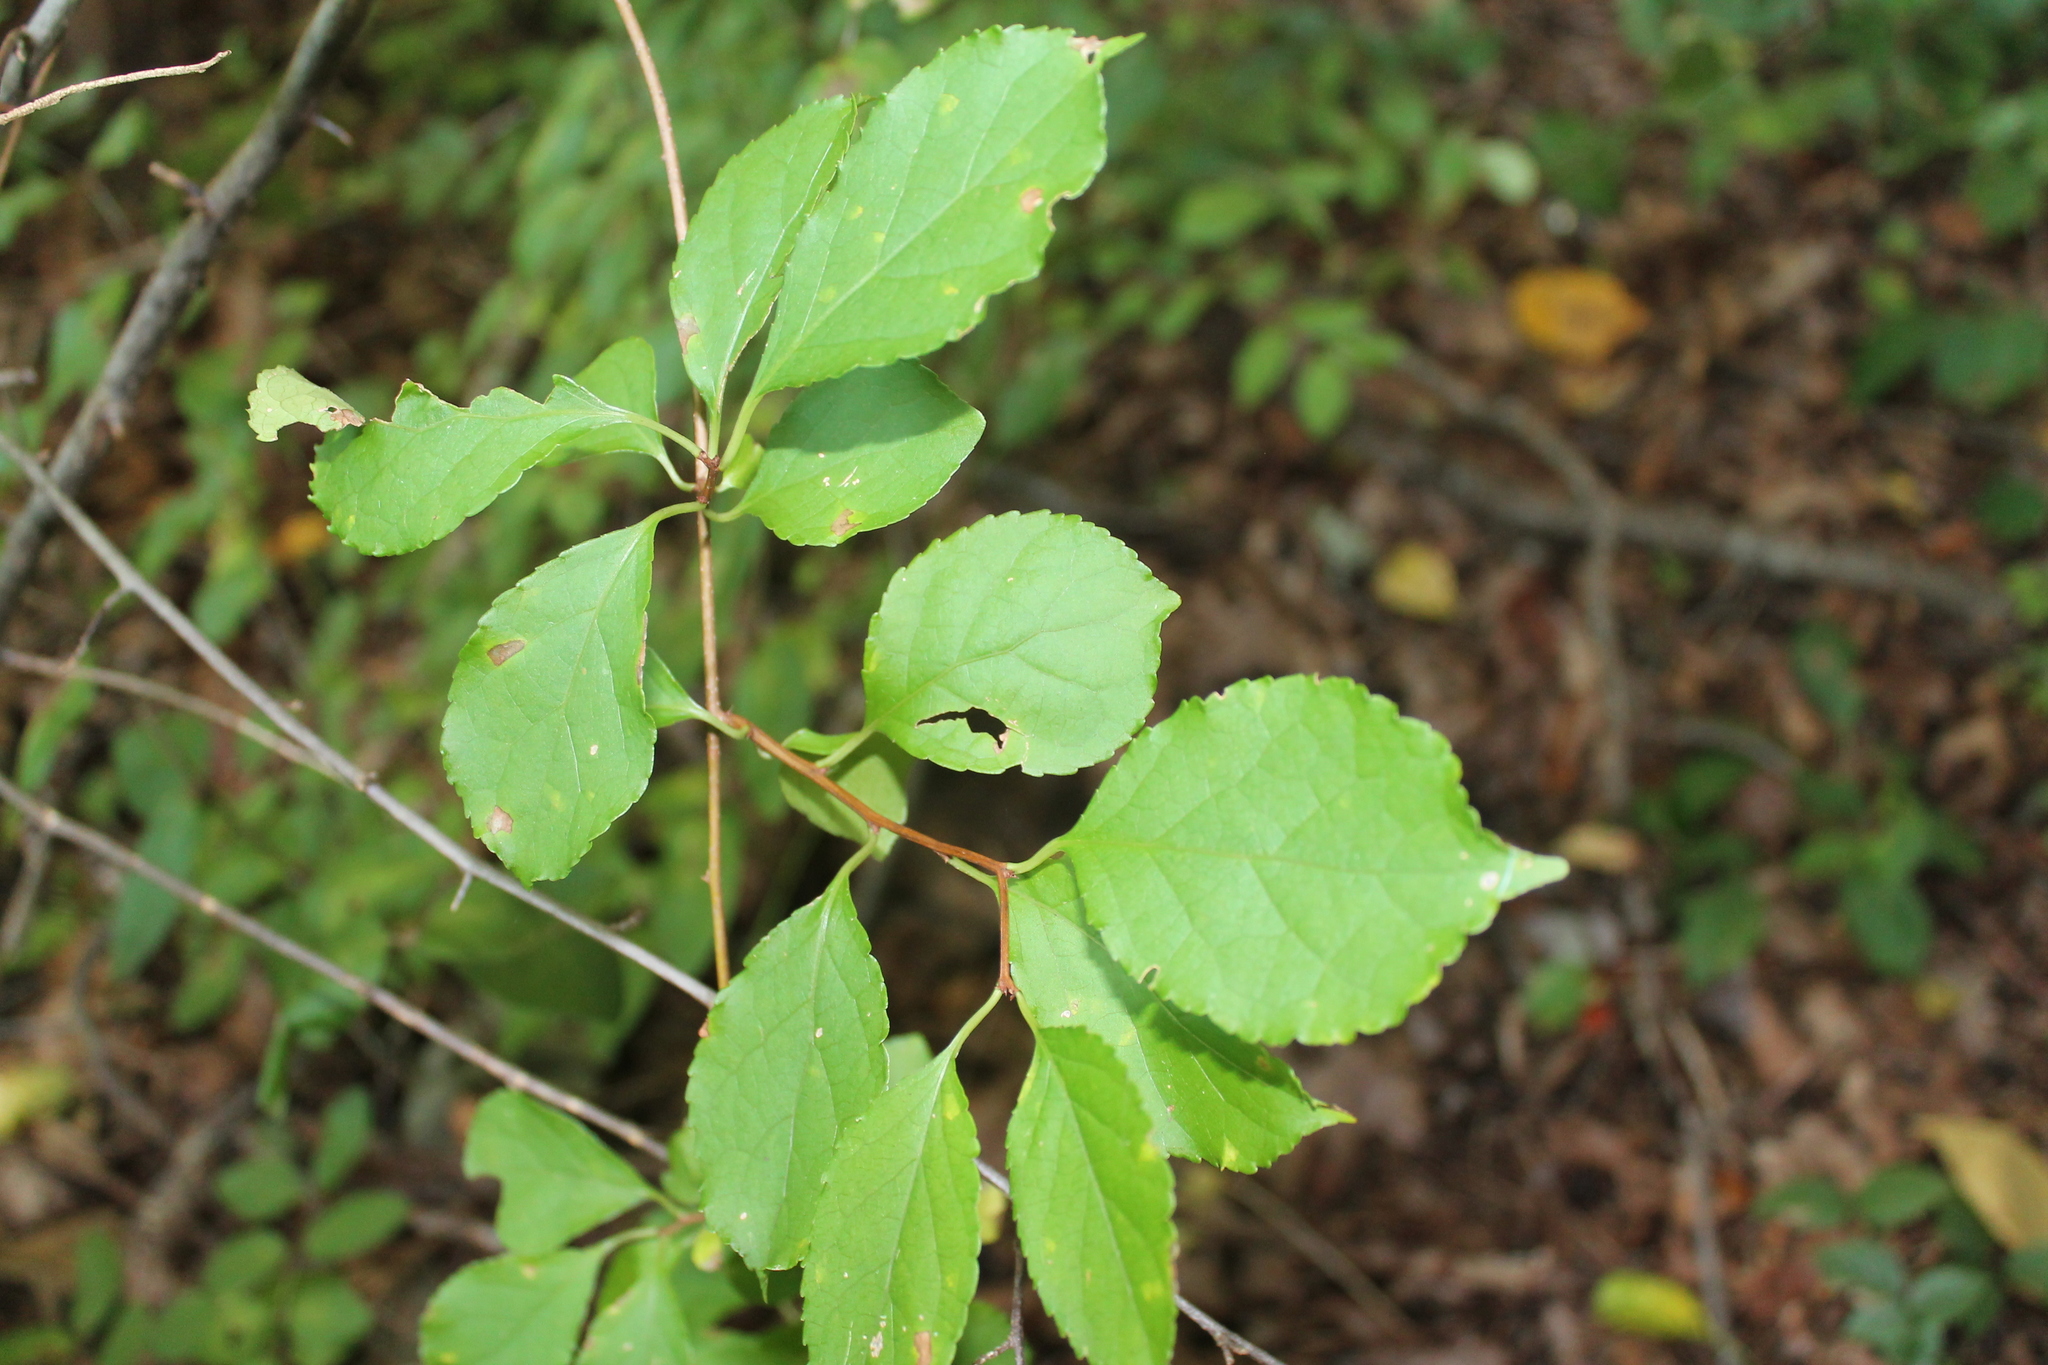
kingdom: Plantae
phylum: Tracheophyta
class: Magnoliopsida
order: Celastrales
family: Celastraceae
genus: Celastrus
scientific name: Celastrus orbiculatus
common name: Oriental bittersweet
